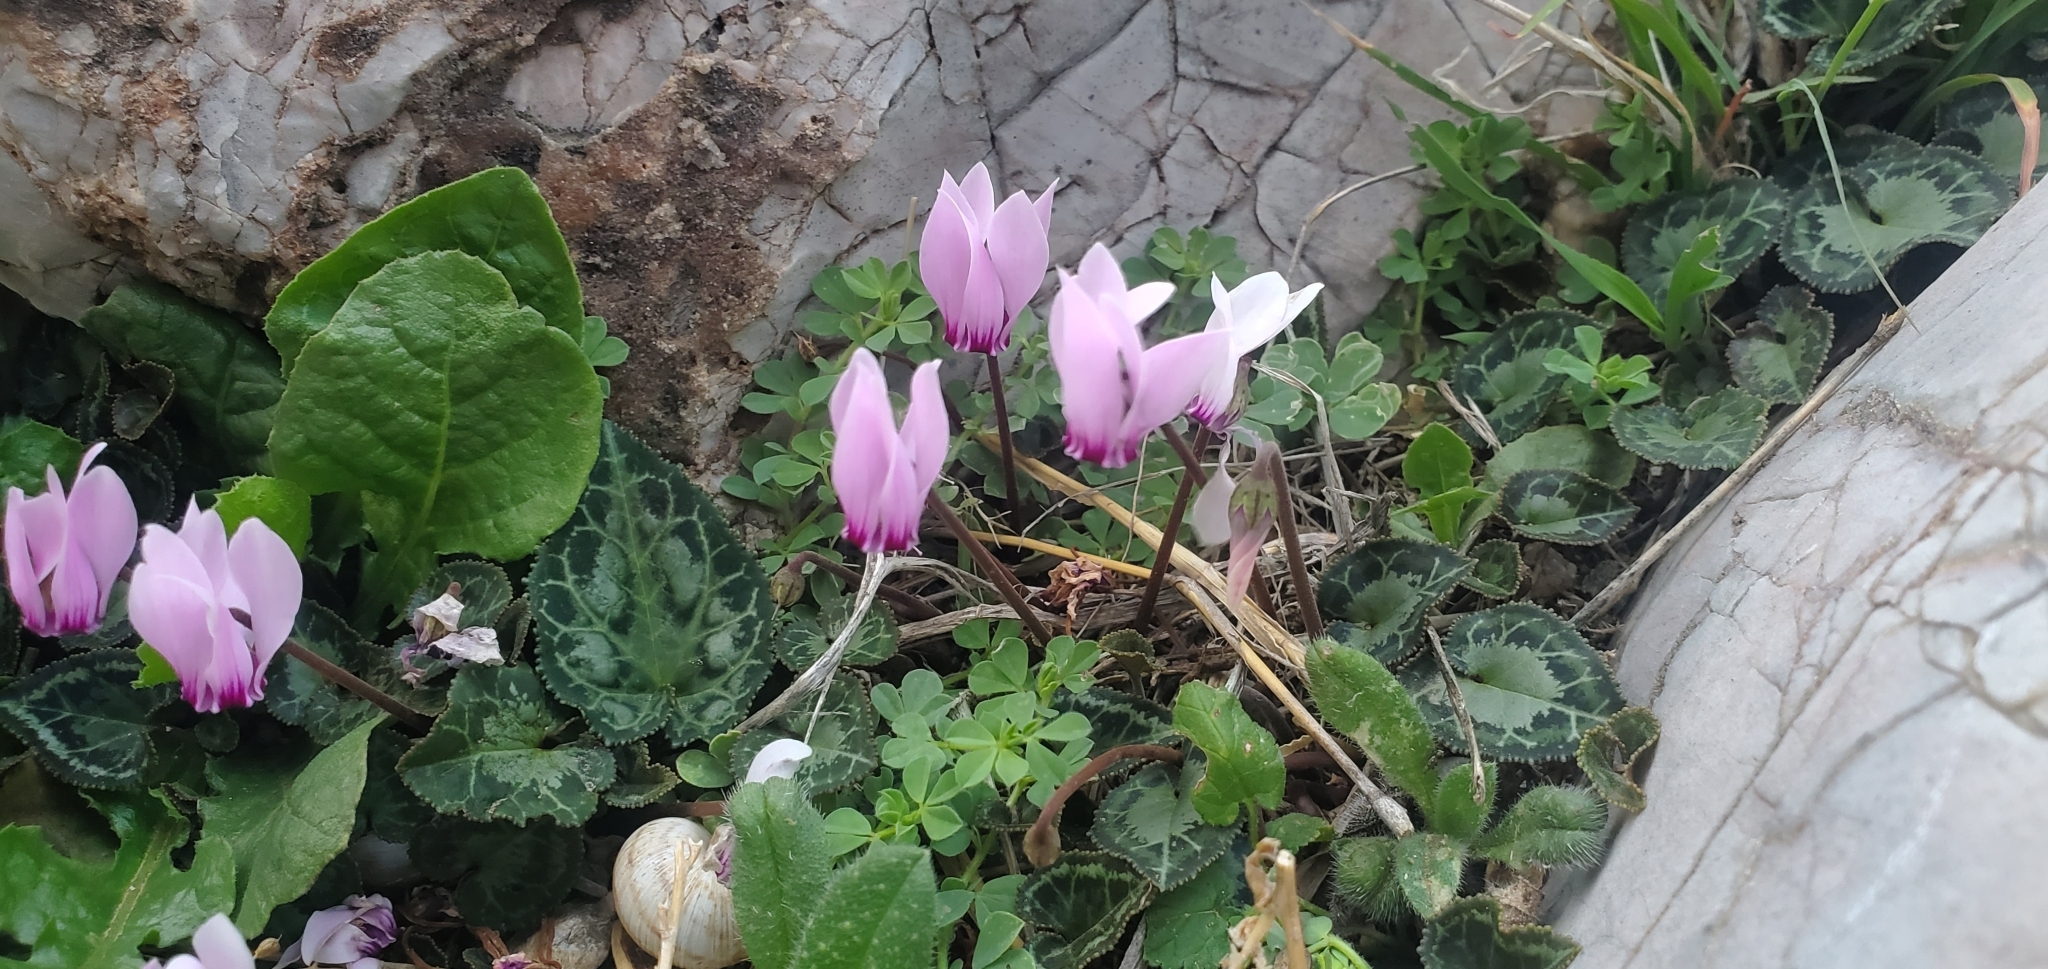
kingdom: Plantae
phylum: Tracheophyta
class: Magnoliopsida
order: Ericales
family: Primulaceae
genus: Cyclamen
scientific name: Cyclamen graecum
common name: Greek cyclamen
